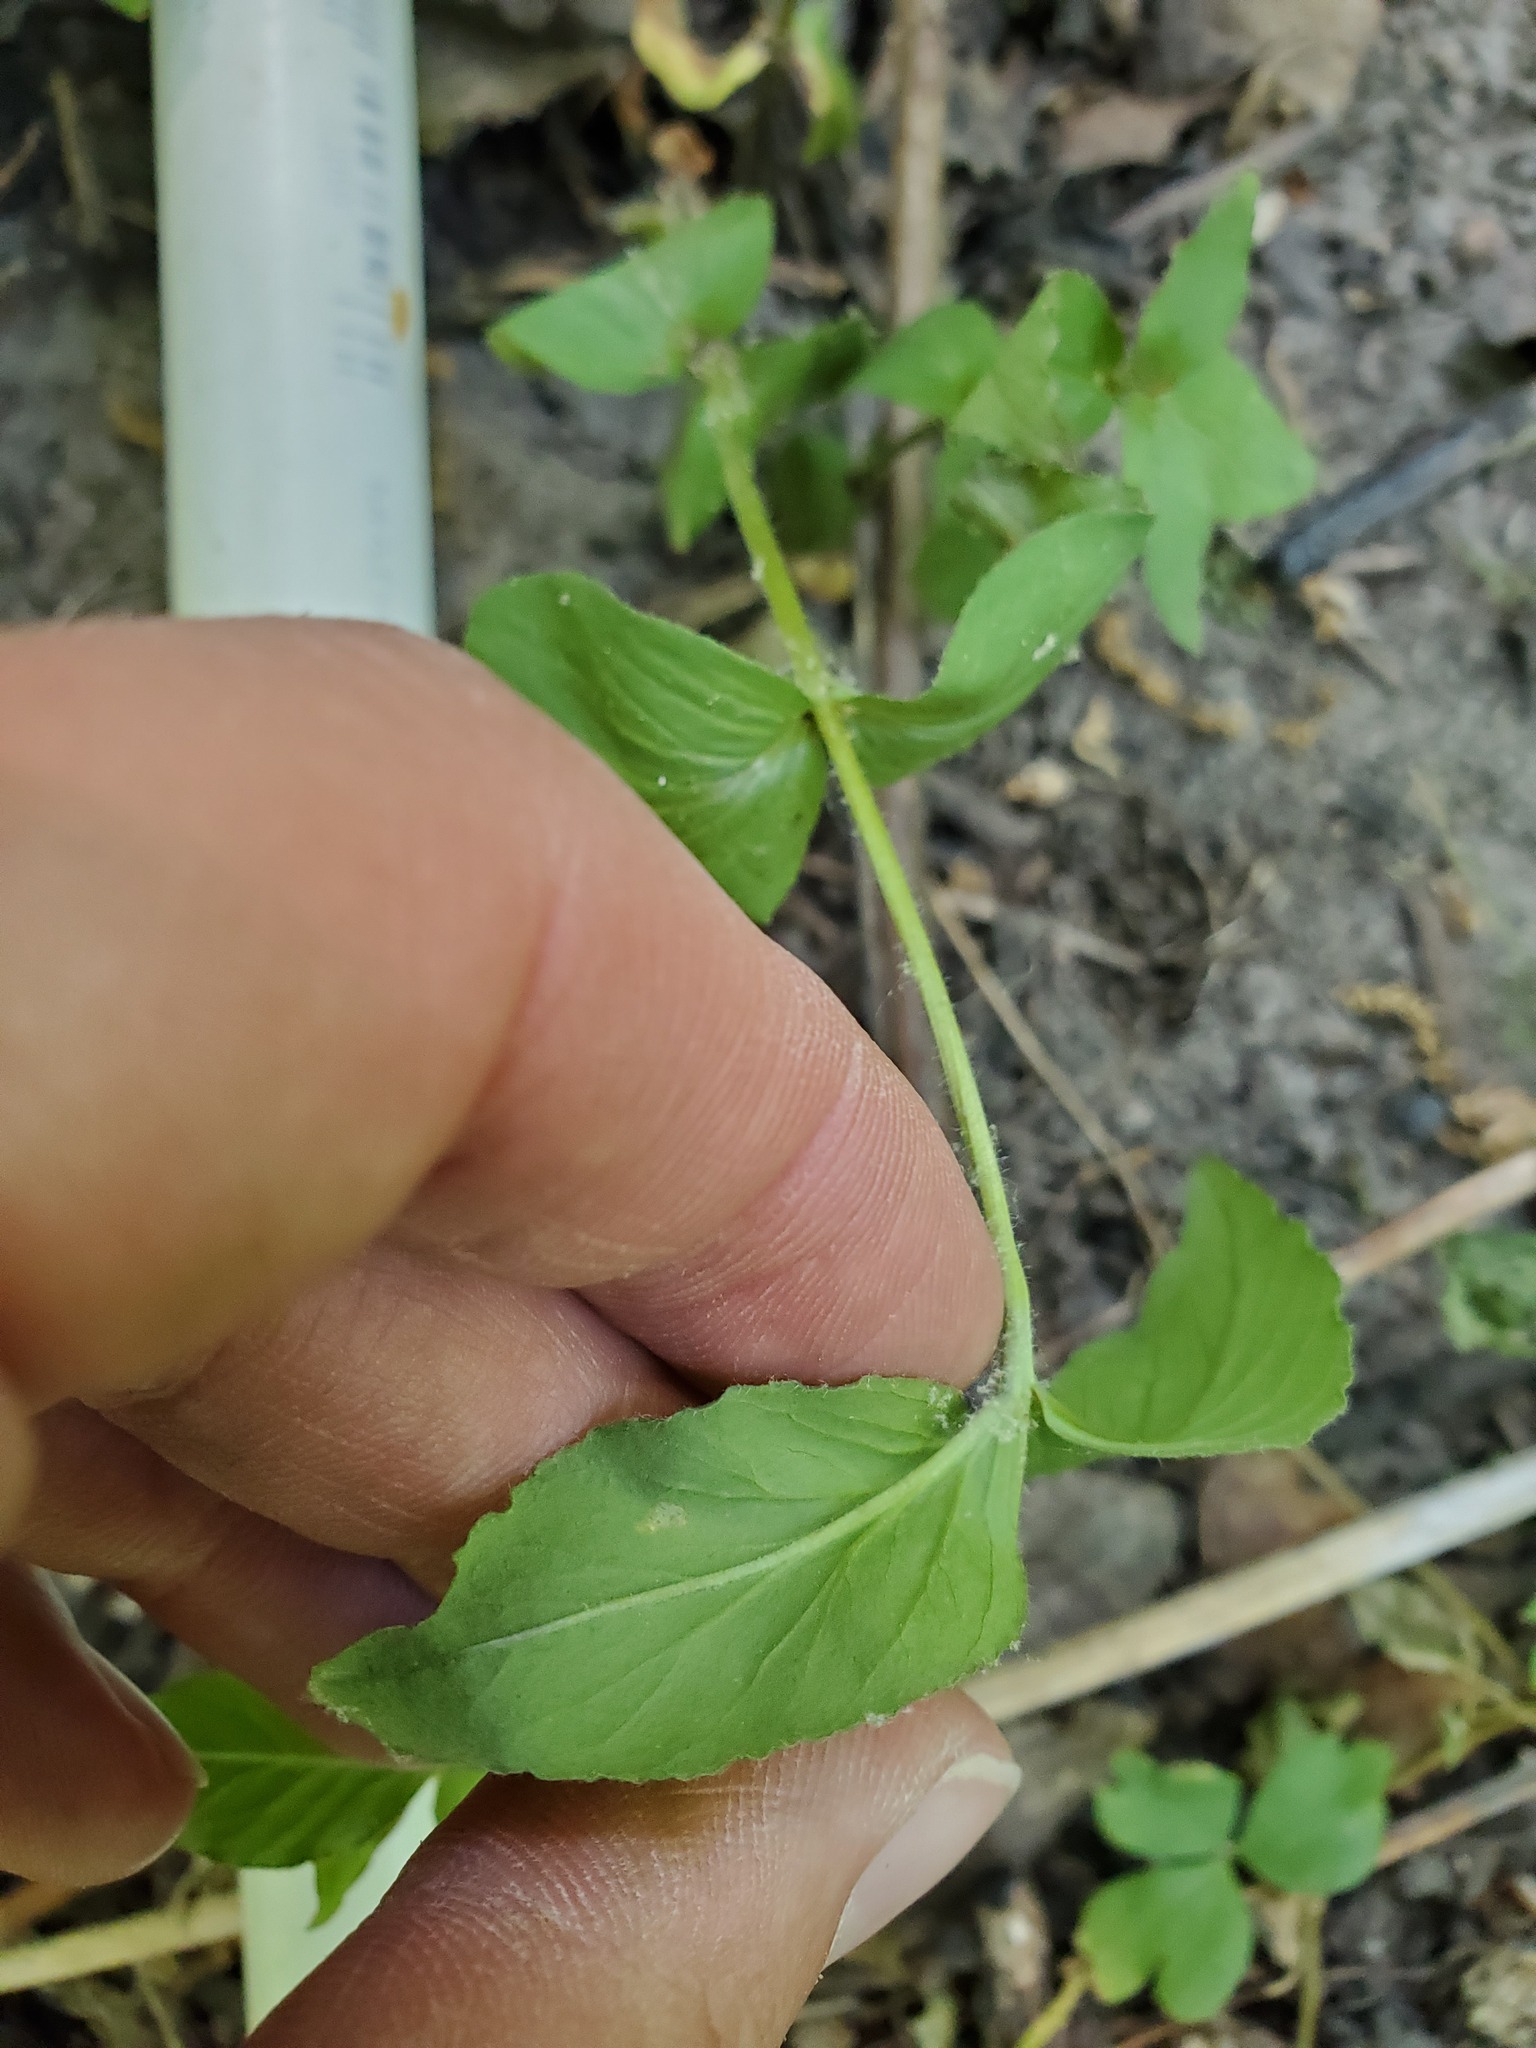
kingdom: Plantae
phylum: Tracheophyta
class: Magnoliopsida
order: Ericales
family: Primulaceae
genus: Lysimachia
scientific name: Lysimachia quadrifolia
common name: Whorled loosestrife
